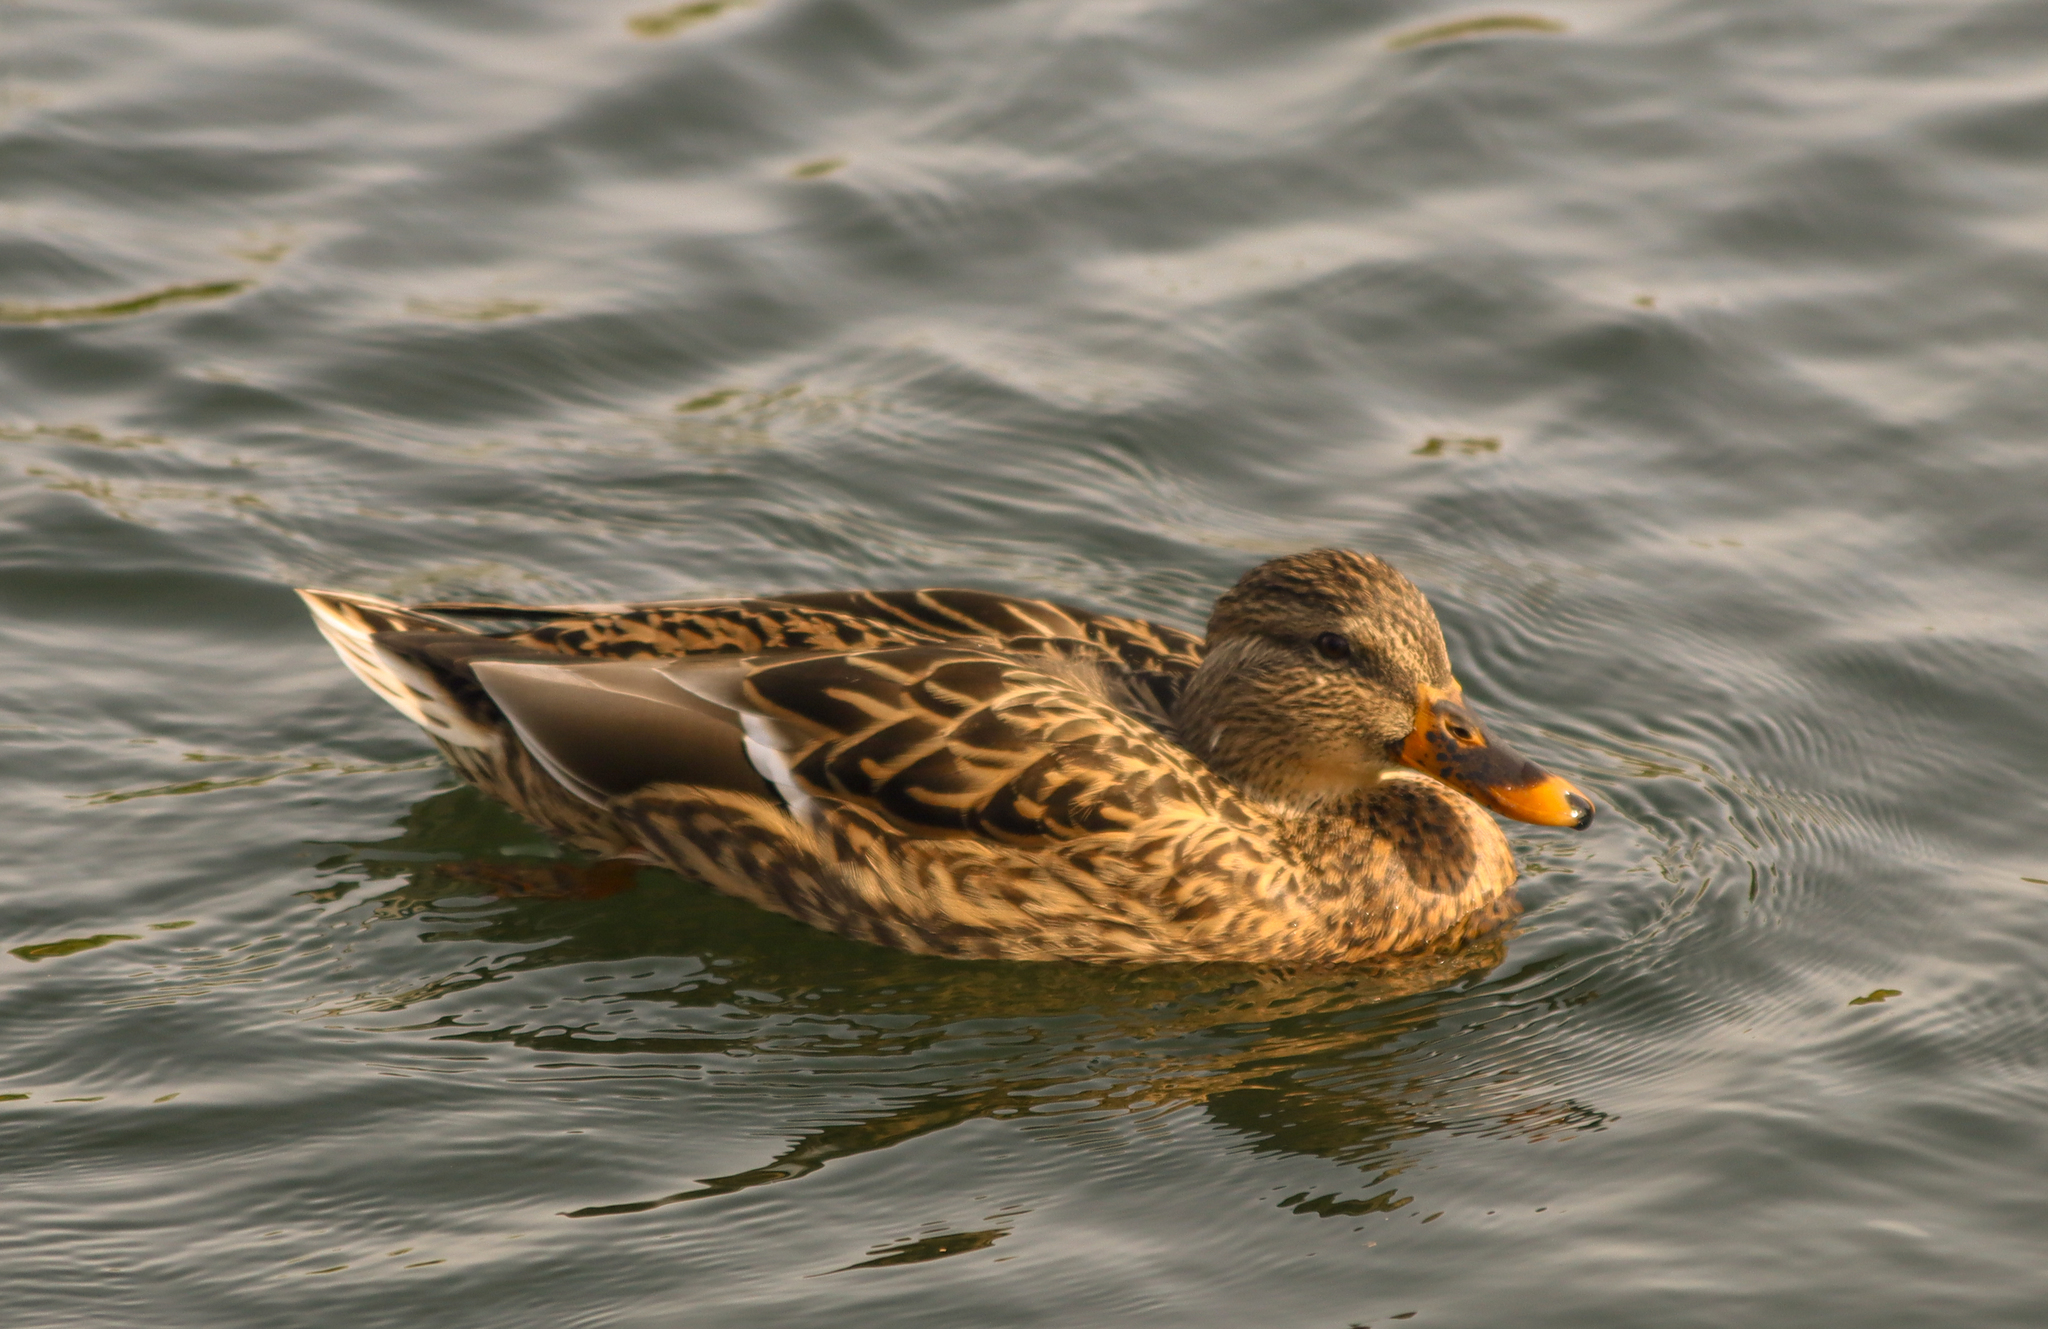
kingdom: Animalia
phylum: Chordata
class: Aves
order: Anseriformes
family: Anatidae
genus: Anas
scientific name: Anas platyrhynchos
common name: Mallard
